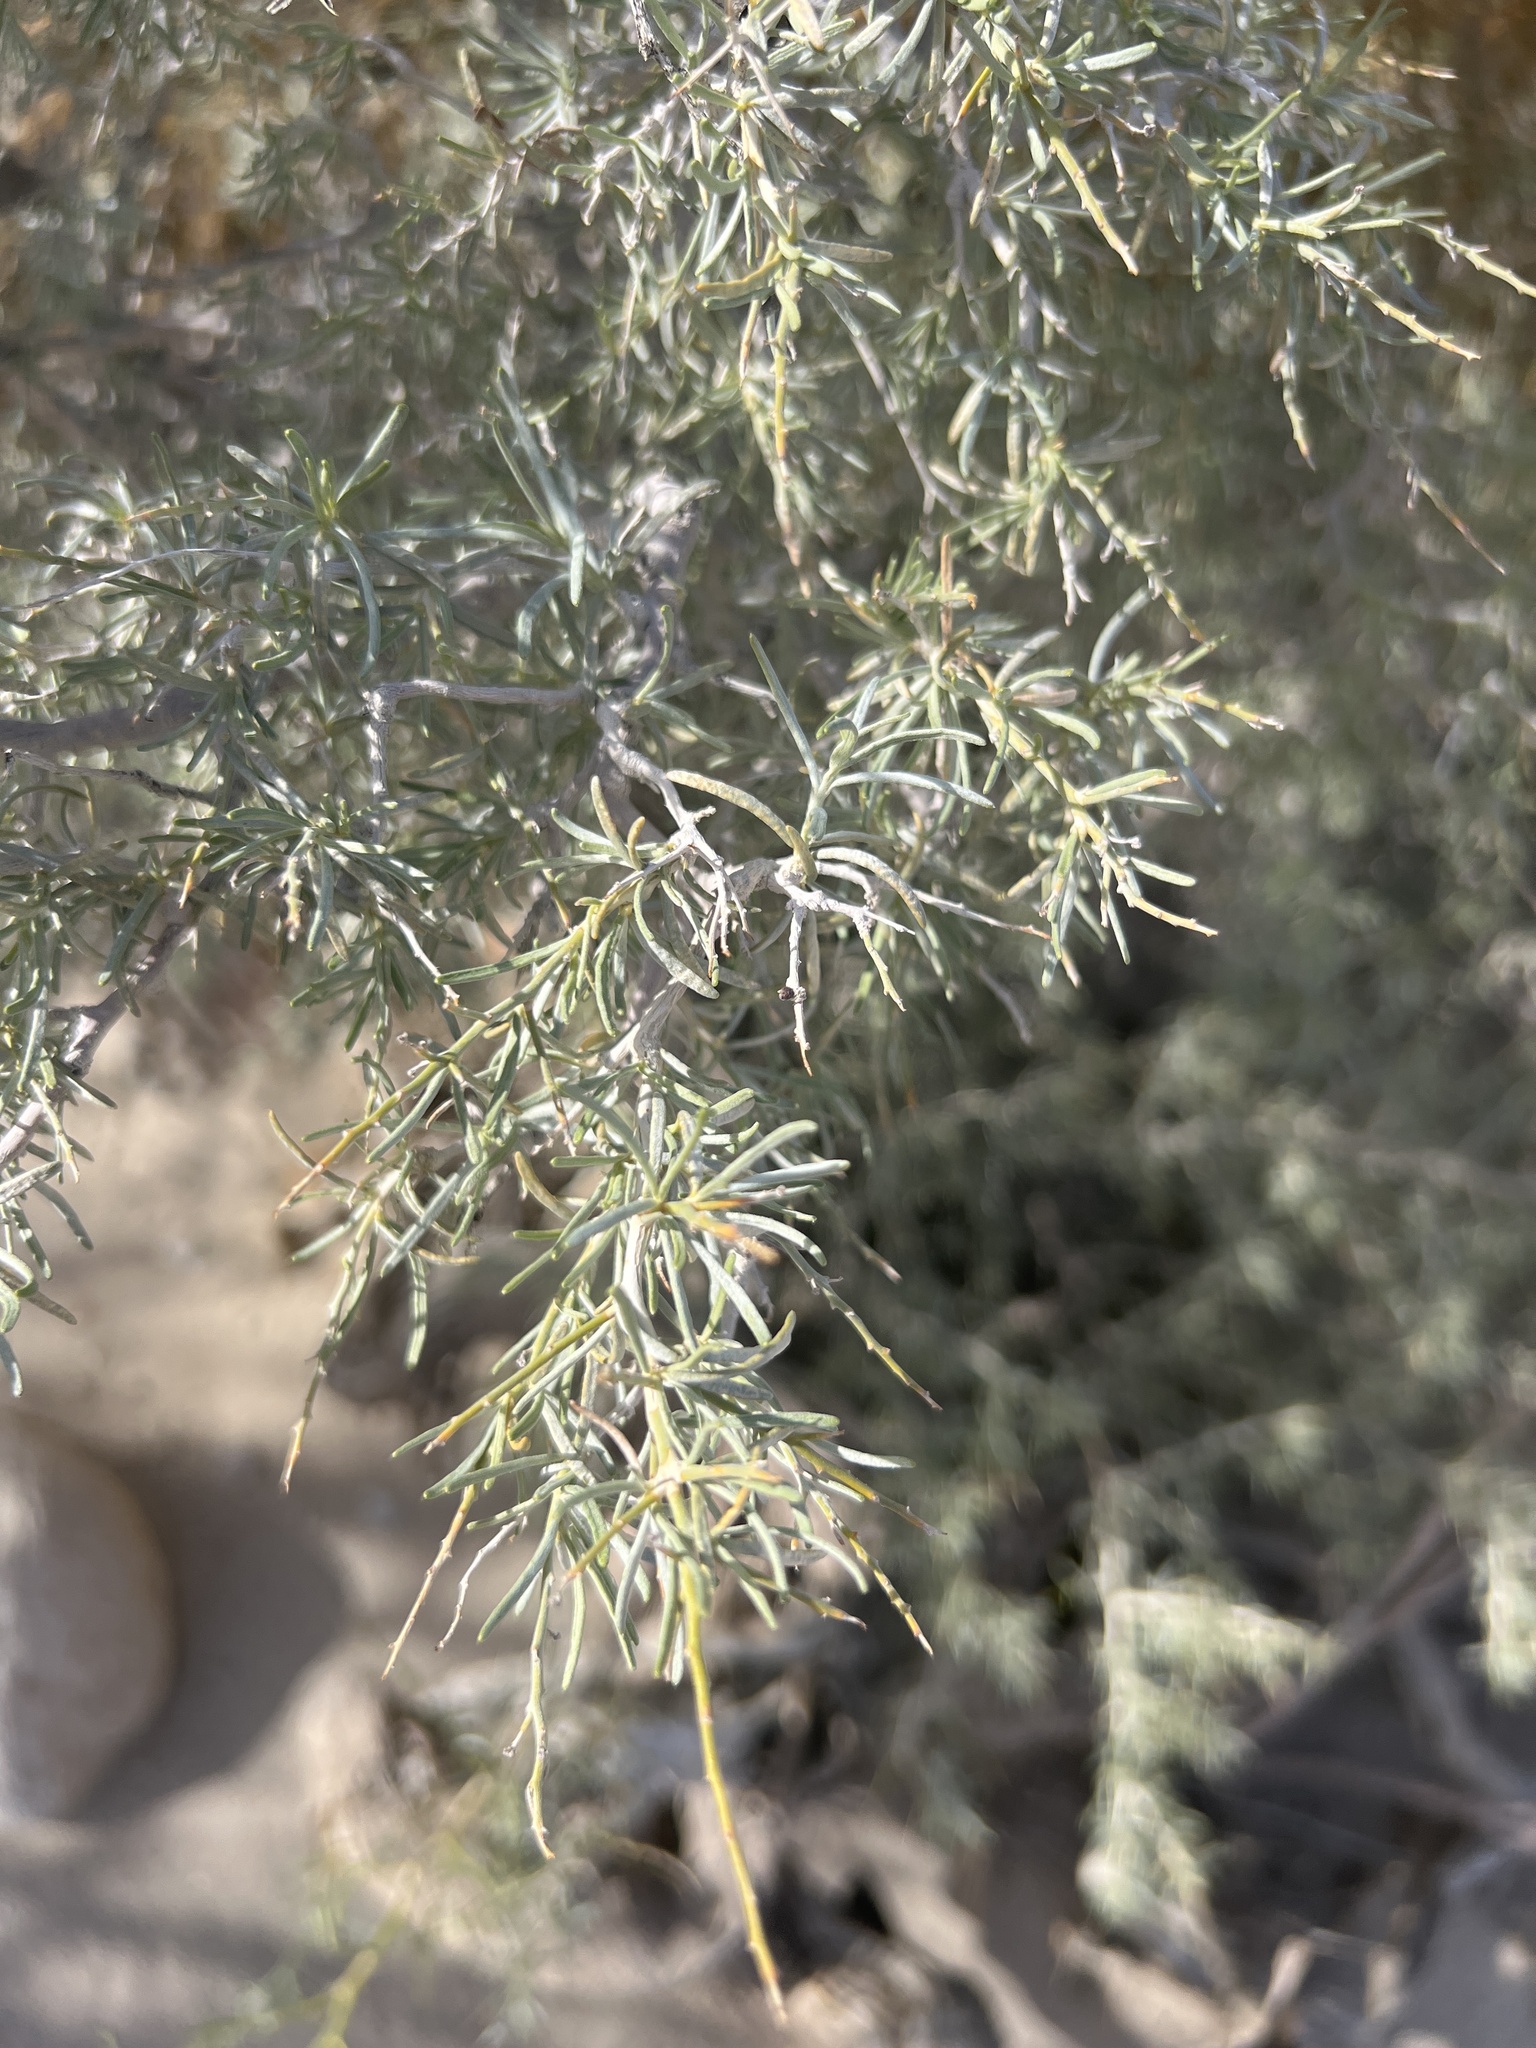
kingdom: Plantae
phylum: Tracheophyta
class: Magnoliopsida
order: Fabales
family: Fabaceae
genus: Psorothamnus
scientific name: Psorothamnus schottii
